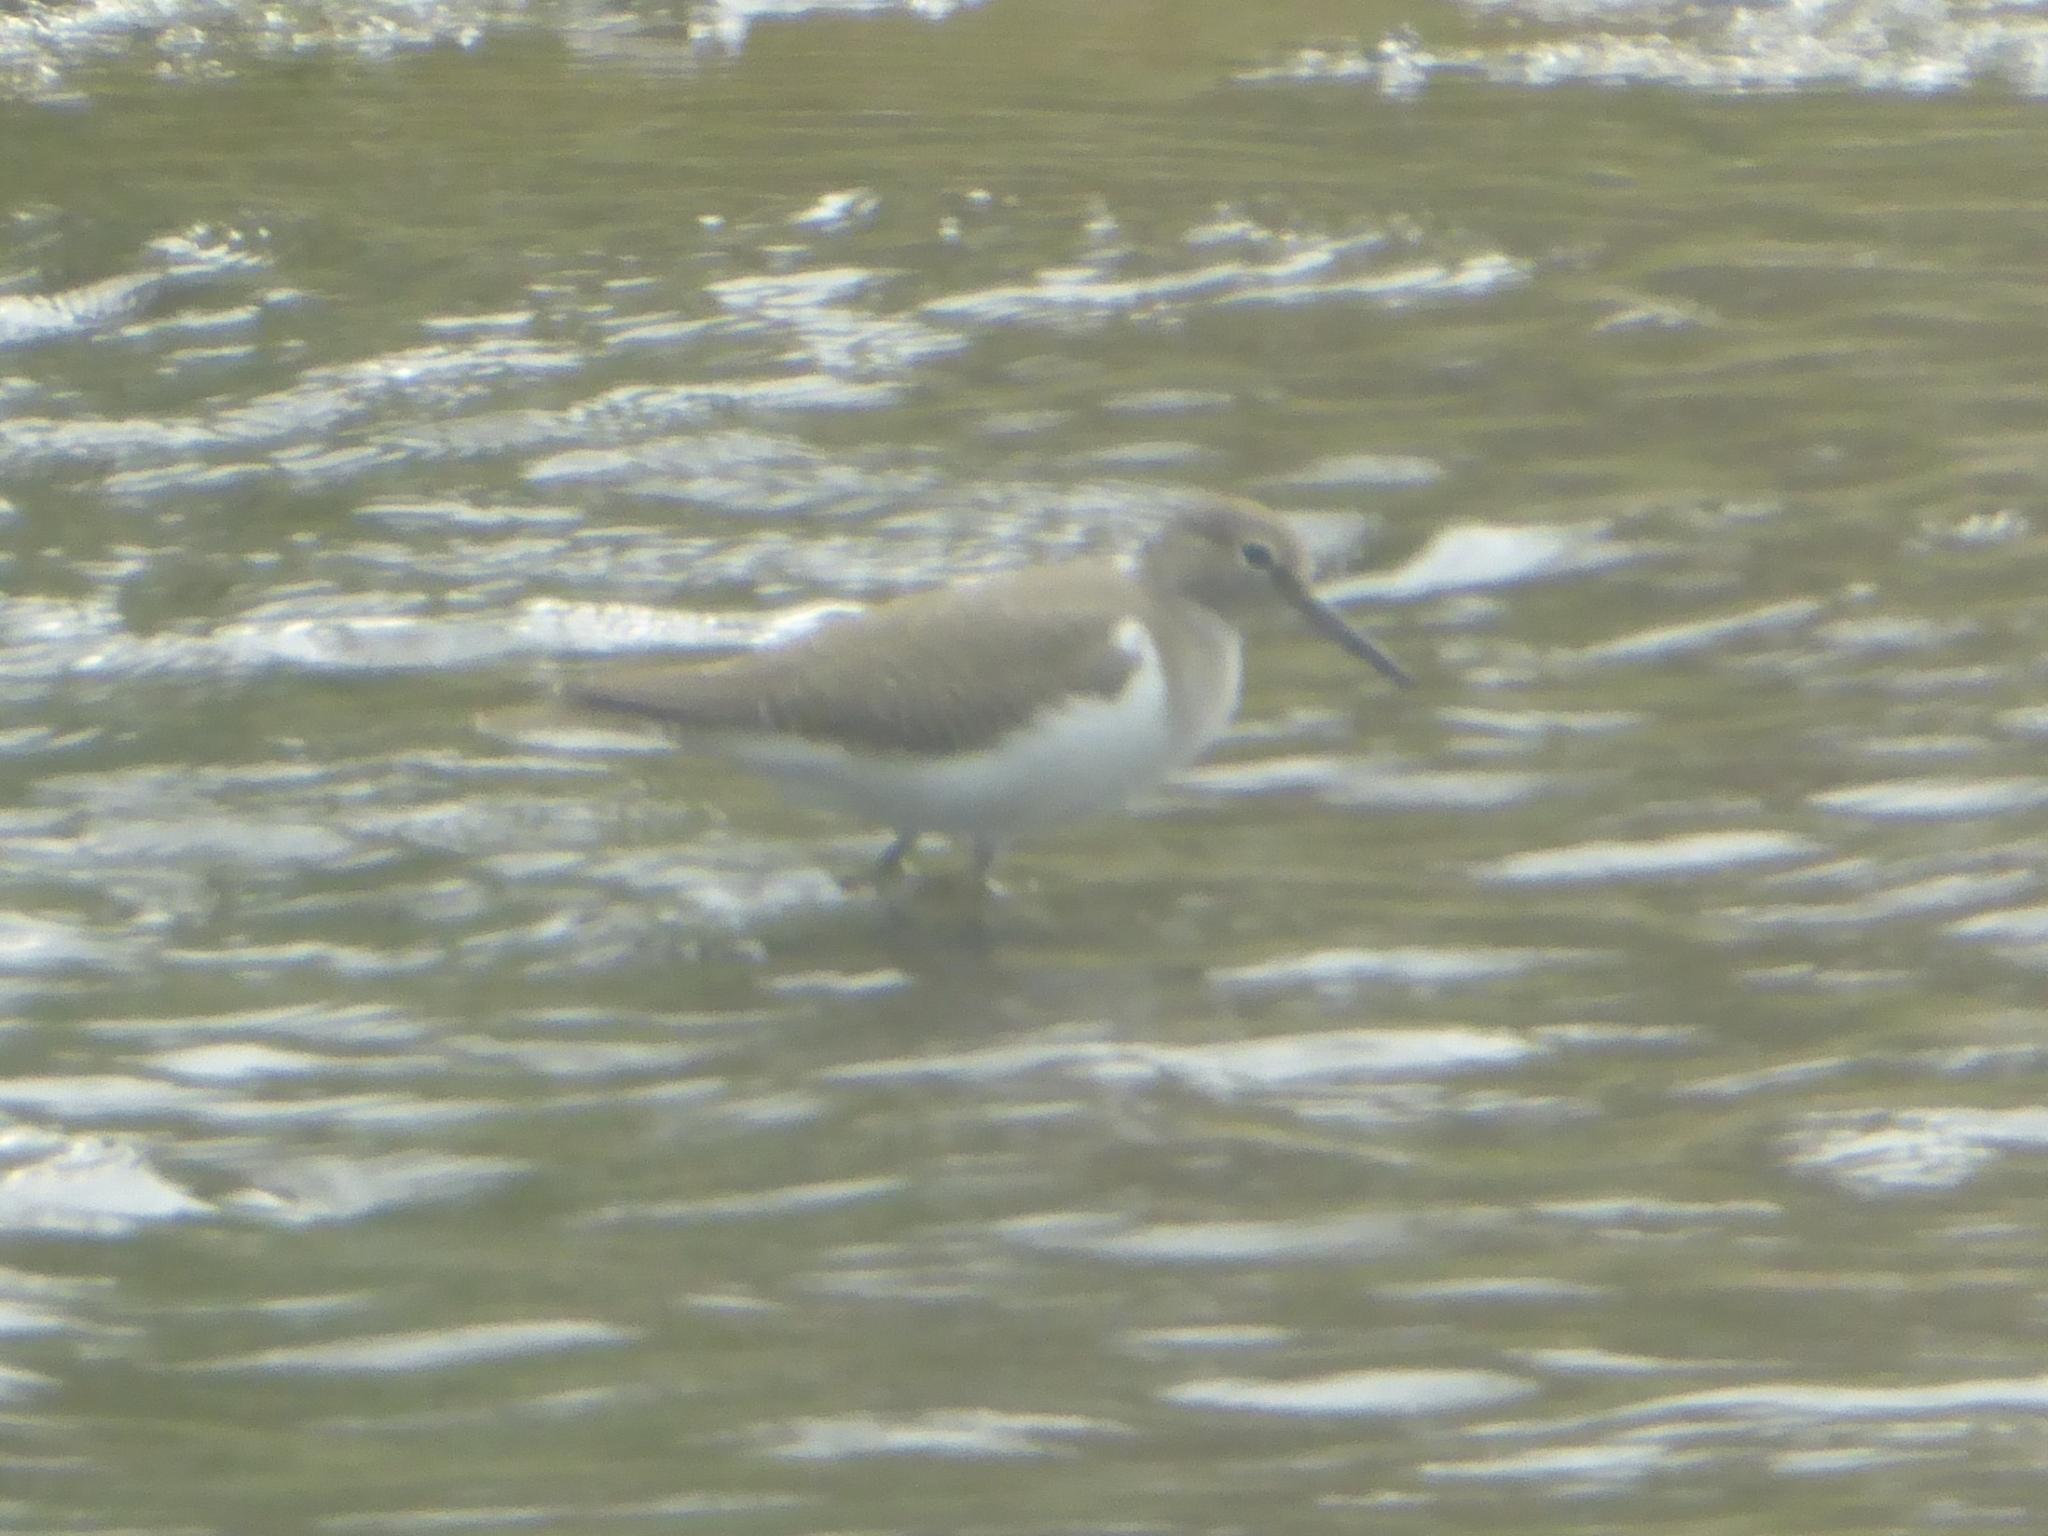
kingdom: Animalia
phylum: Chordata
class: Aves
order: Charadriiformes
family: Scolopacidae
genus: Actitis
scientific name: Actitis hypoleucos
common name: Common sandpiper
